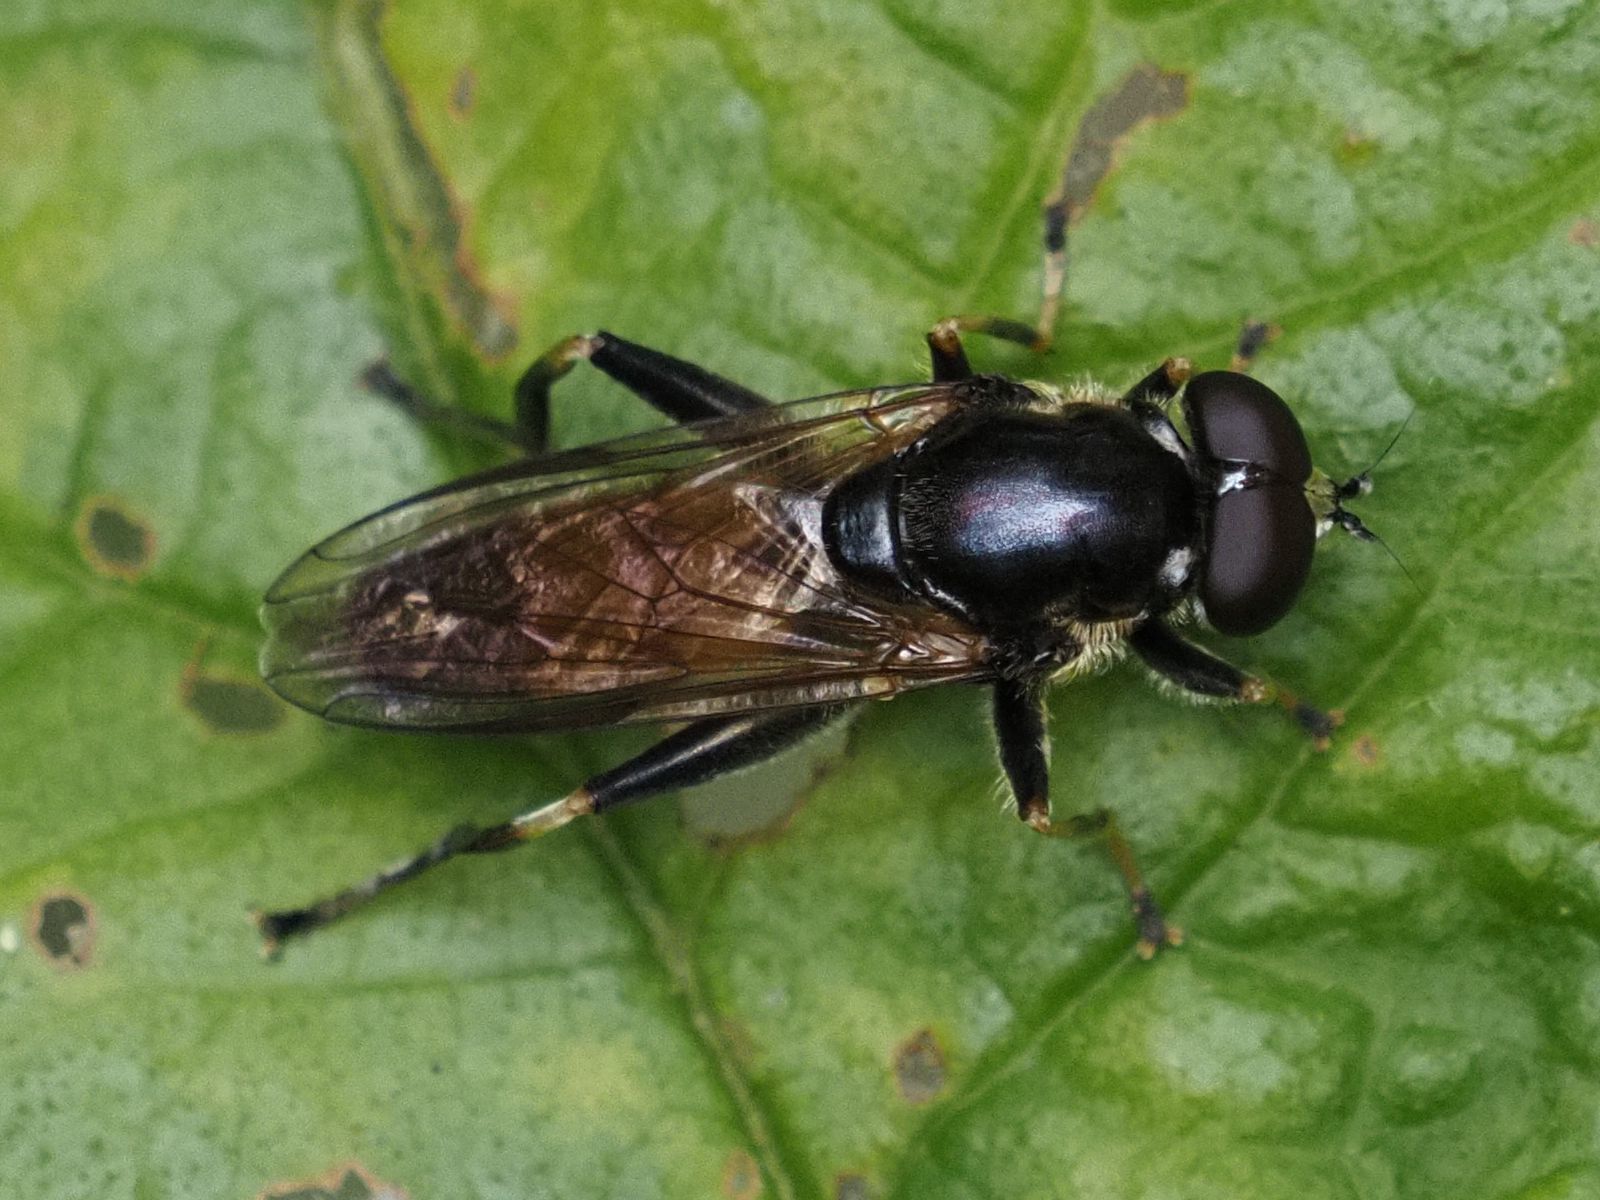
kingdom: Animalia
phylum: Arthropoda
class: Insecta
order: Diptera
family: Syrphidae
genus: Xylota
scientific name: Xylota segnis
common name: Brown-toed forest fly
